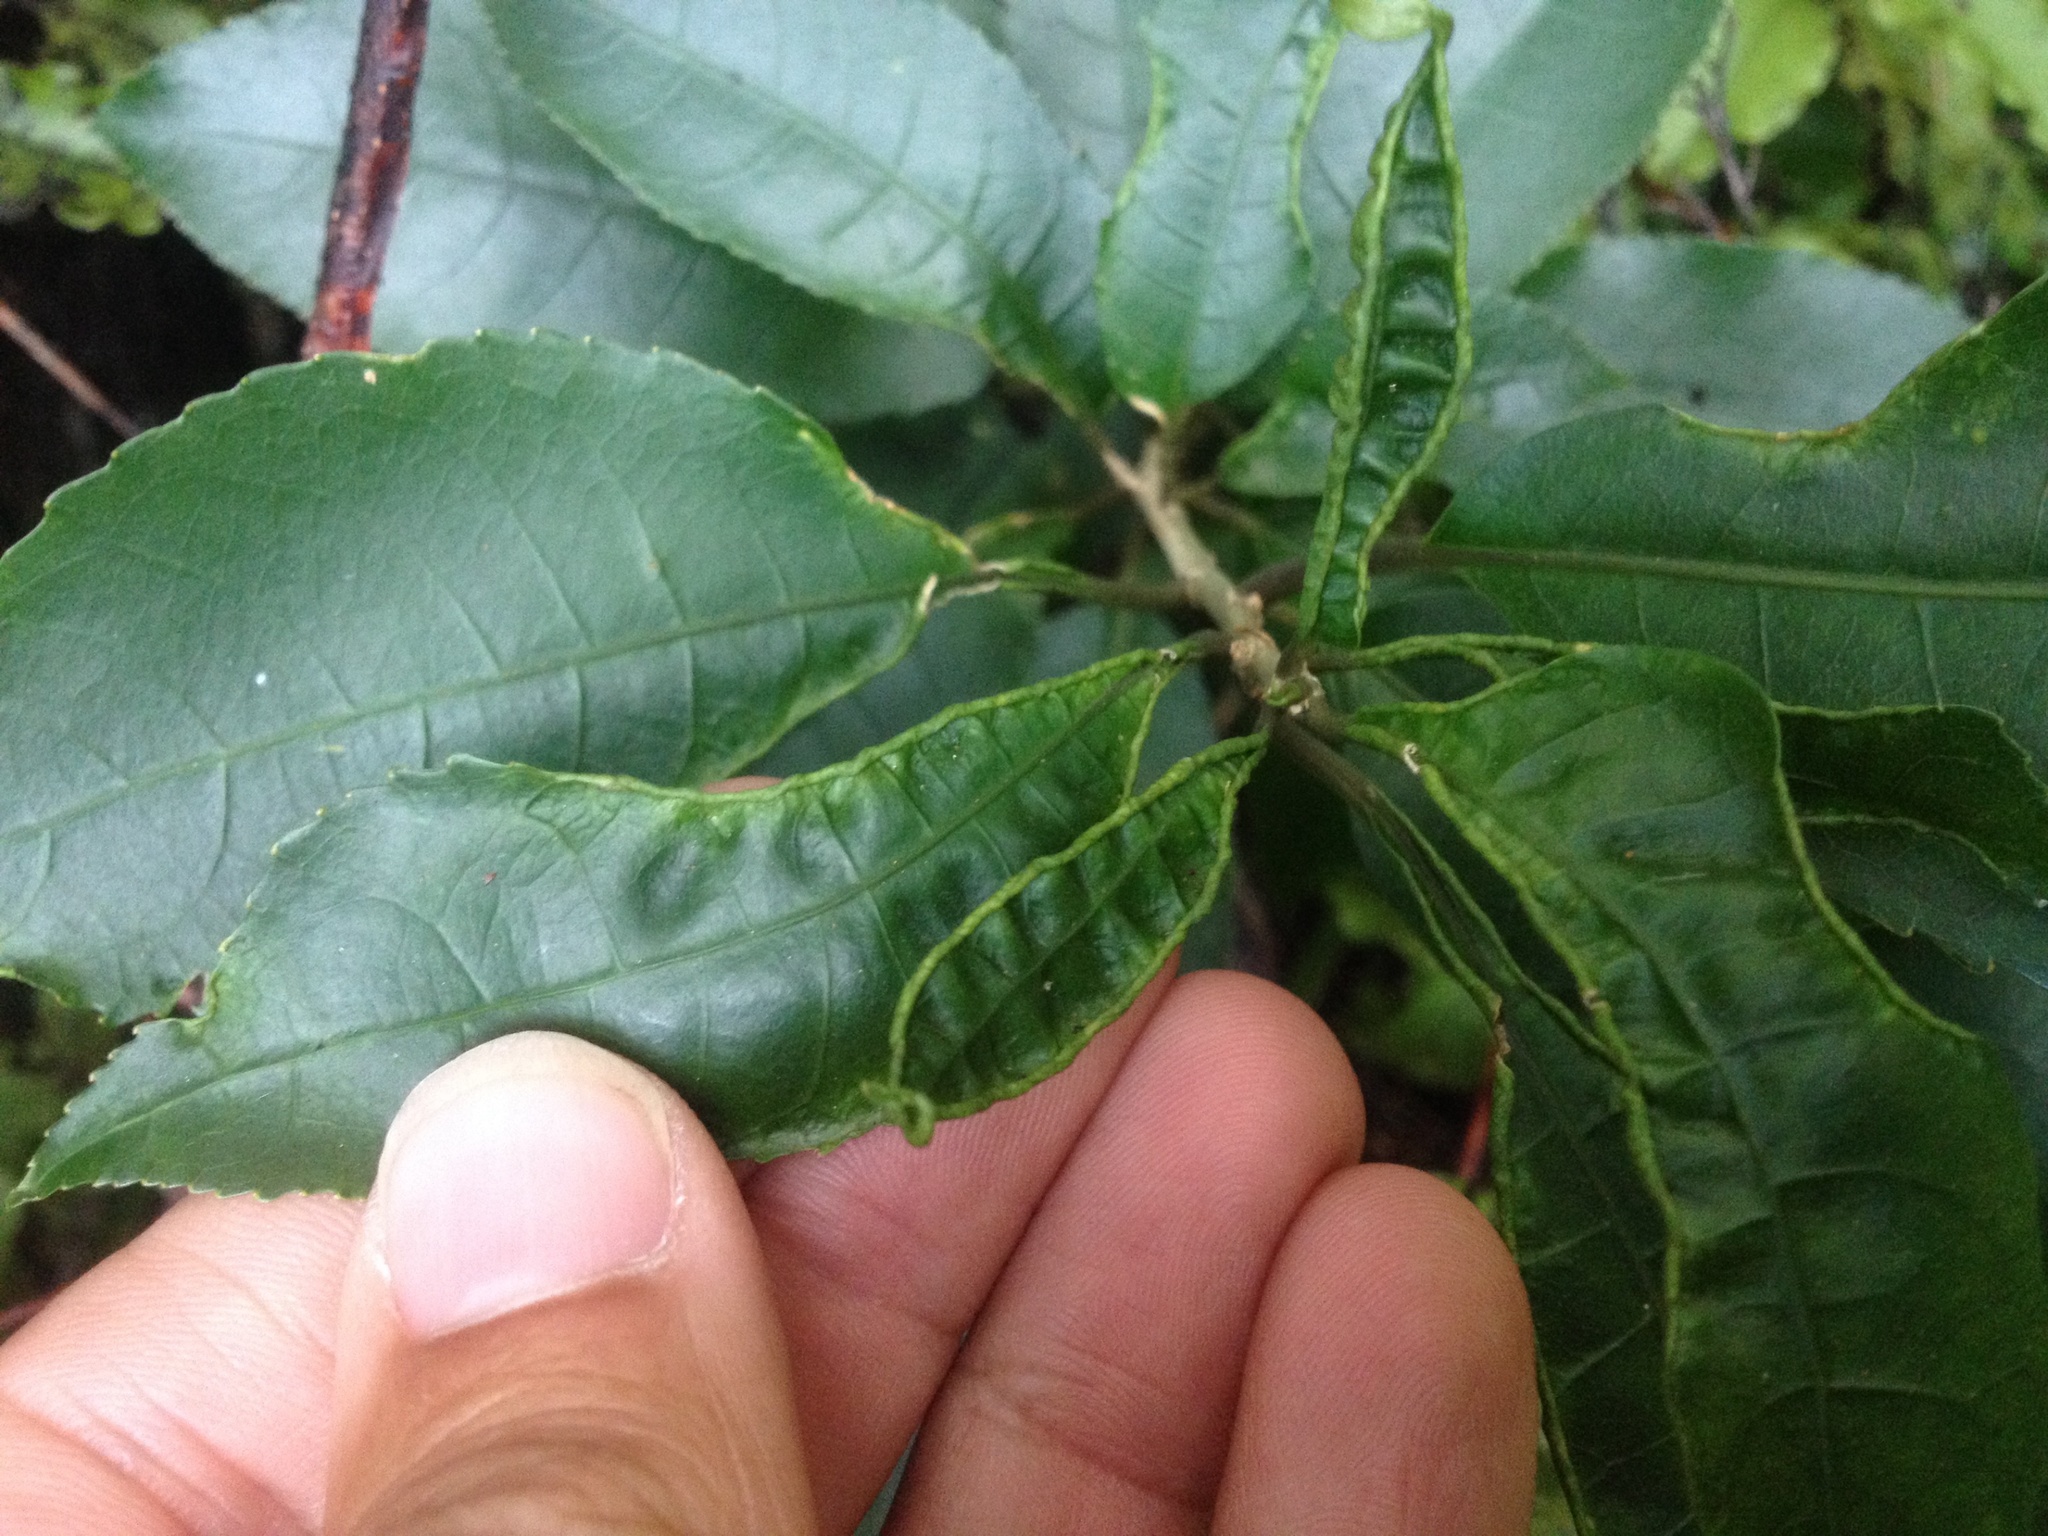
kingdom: Animalia
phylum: Arthropoda
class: Arachnida
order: Trombidiformes
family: Eriophyidae
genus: Aceria
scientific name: Aceria
